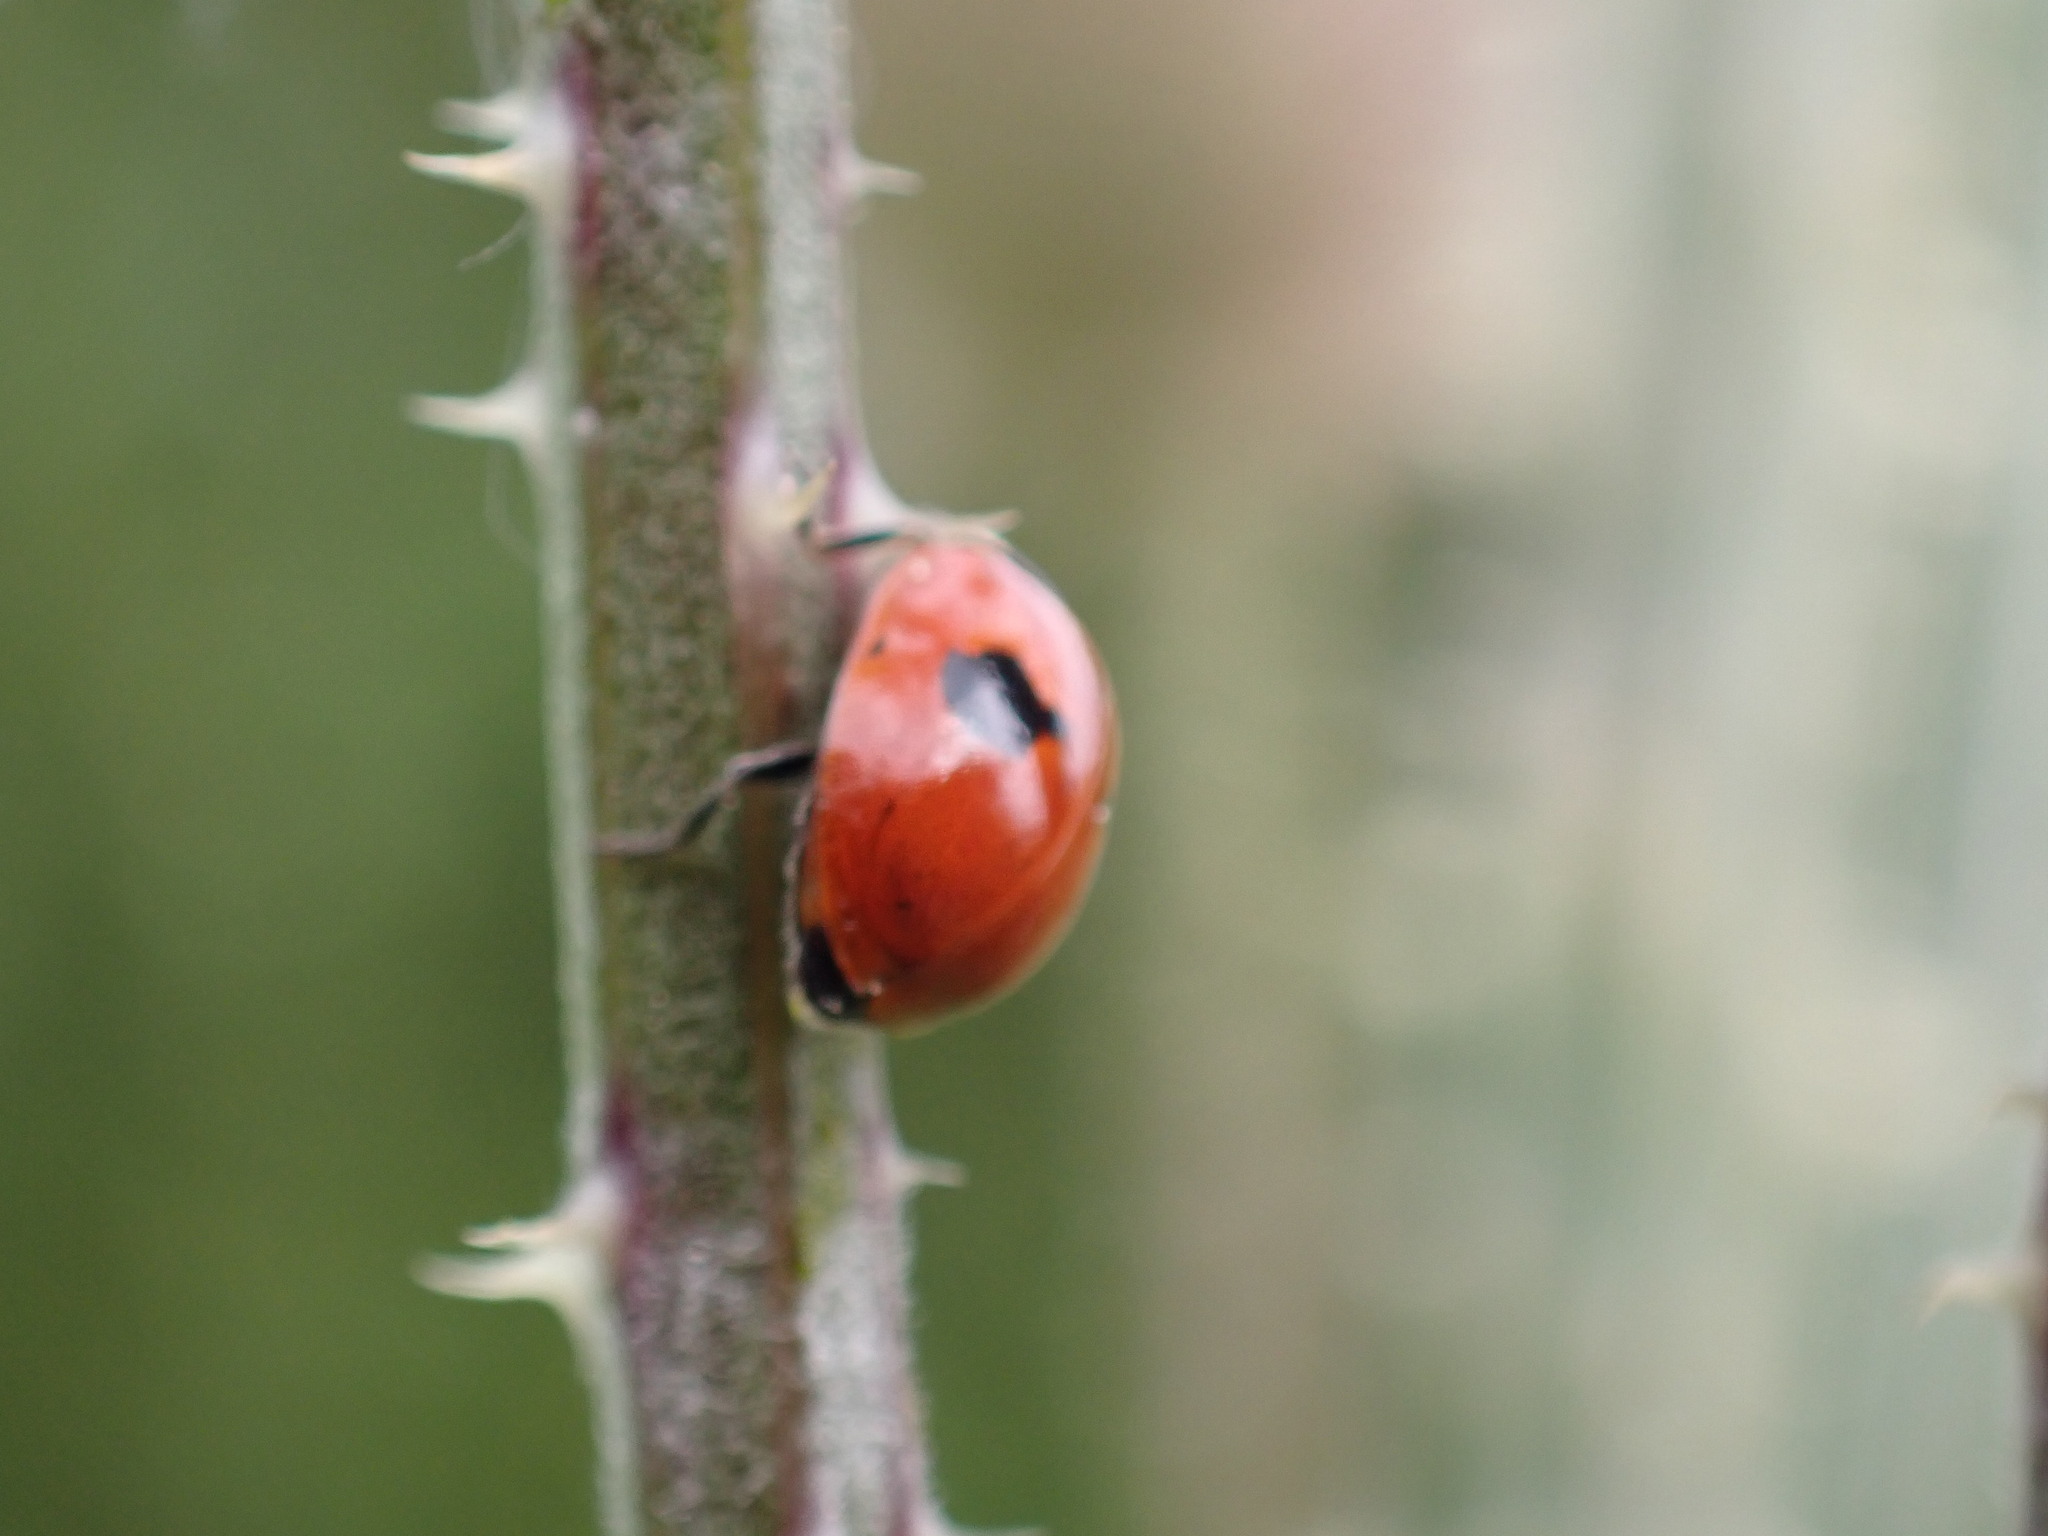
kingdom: Animalia
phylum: Arthropoda
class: Insecta
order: Coleoptera
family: Coccinellidae
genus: Adalia
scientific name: Adalia bipunctata
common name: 2-spot ladybird
